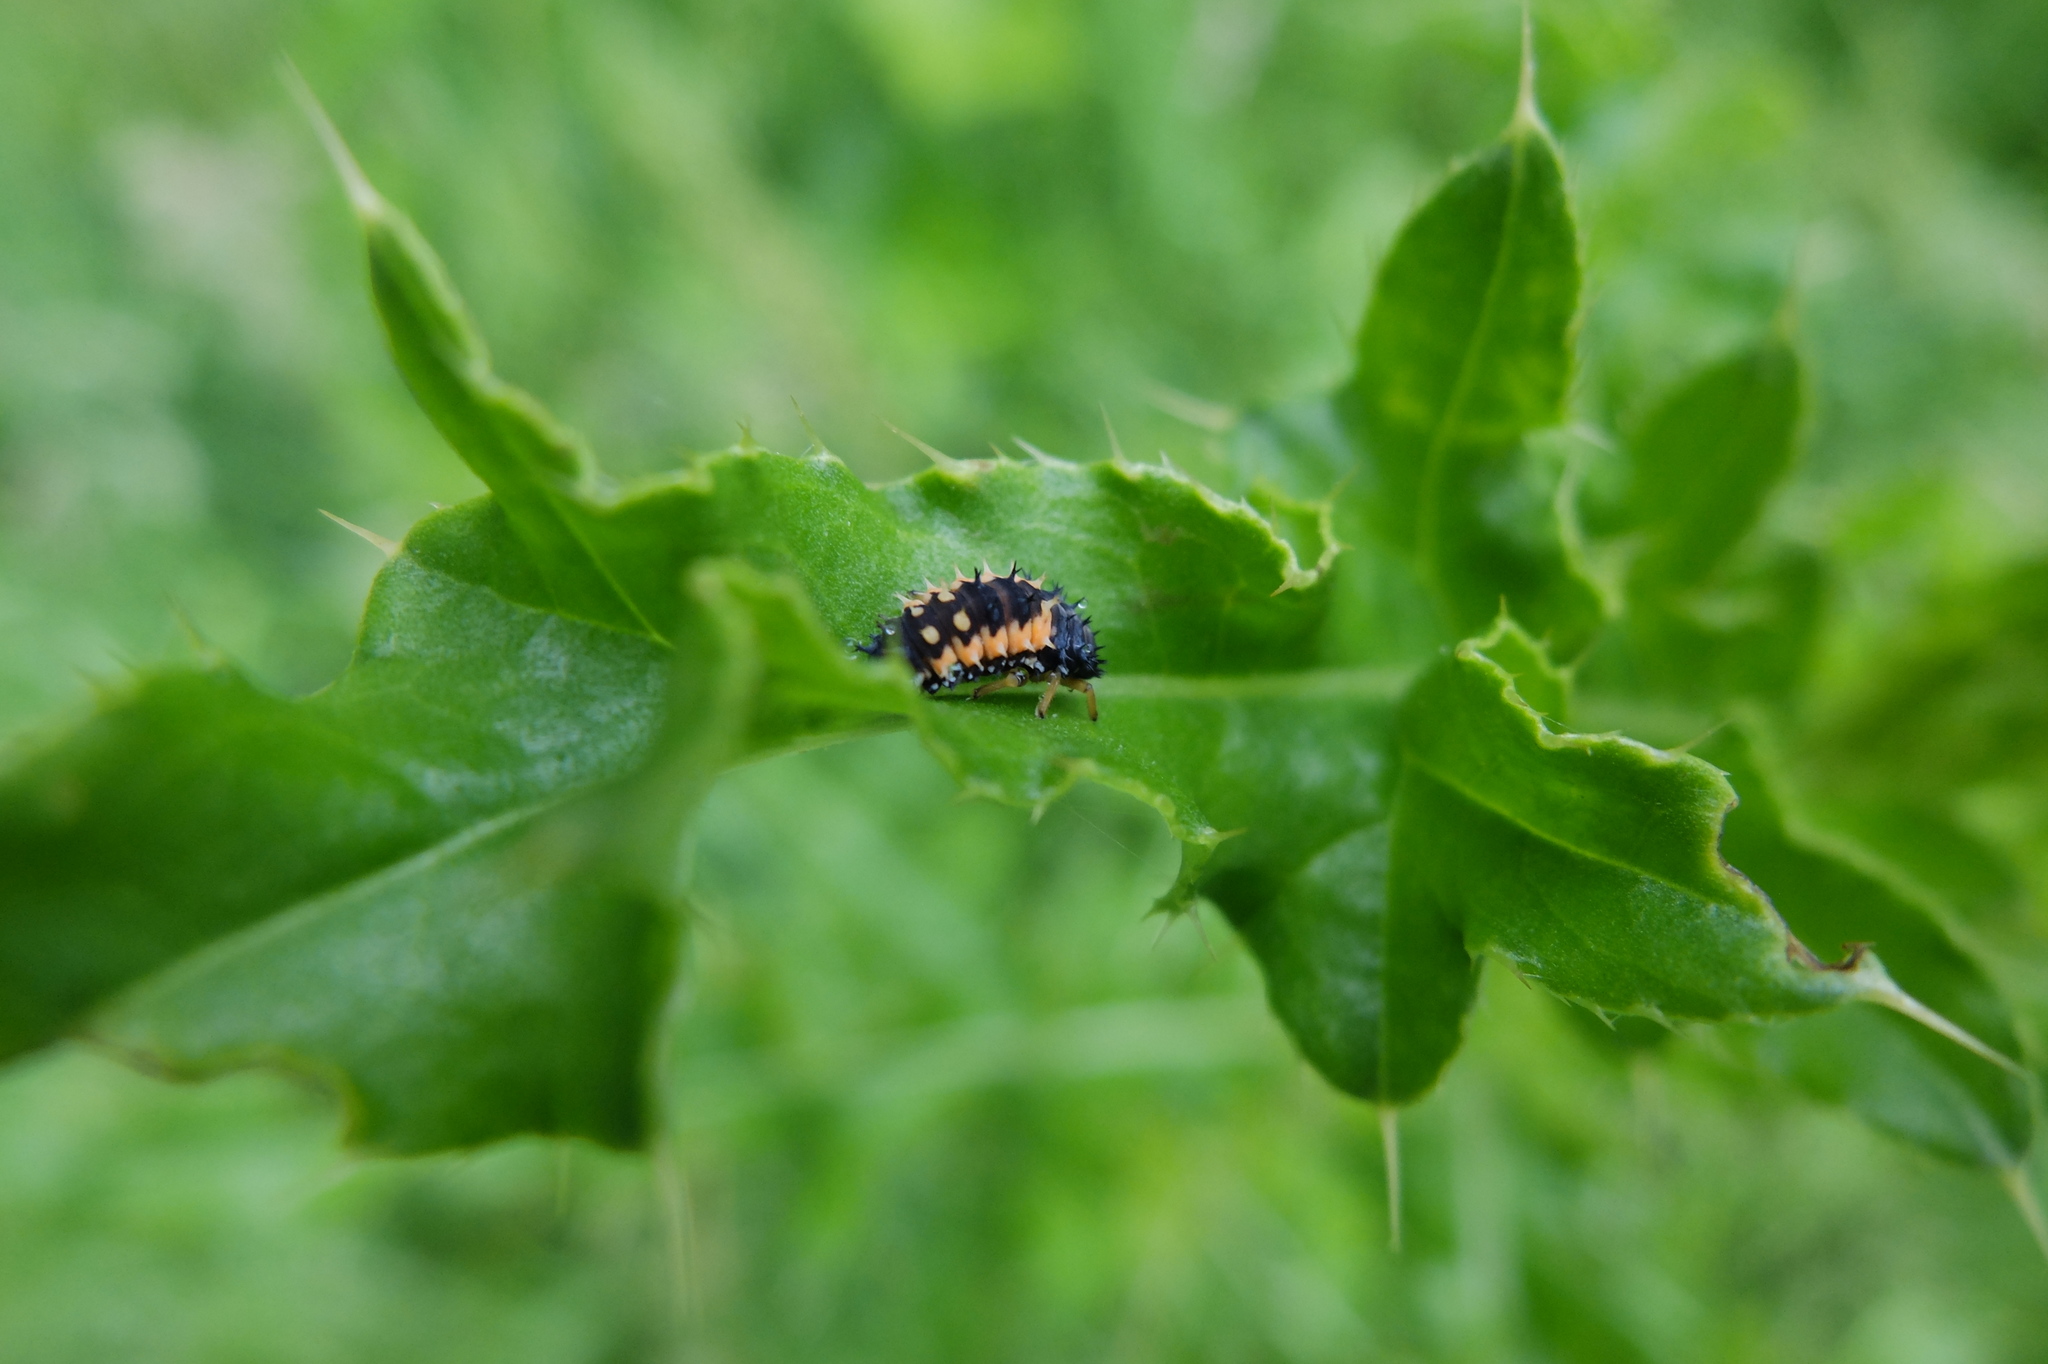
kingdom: Animalia
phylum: Arthropoda
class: Insecta
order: Coleoptera
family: Coccinellidae
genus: Harmonia
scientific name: Harmonia axyridis
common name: Harlequin ladybird
